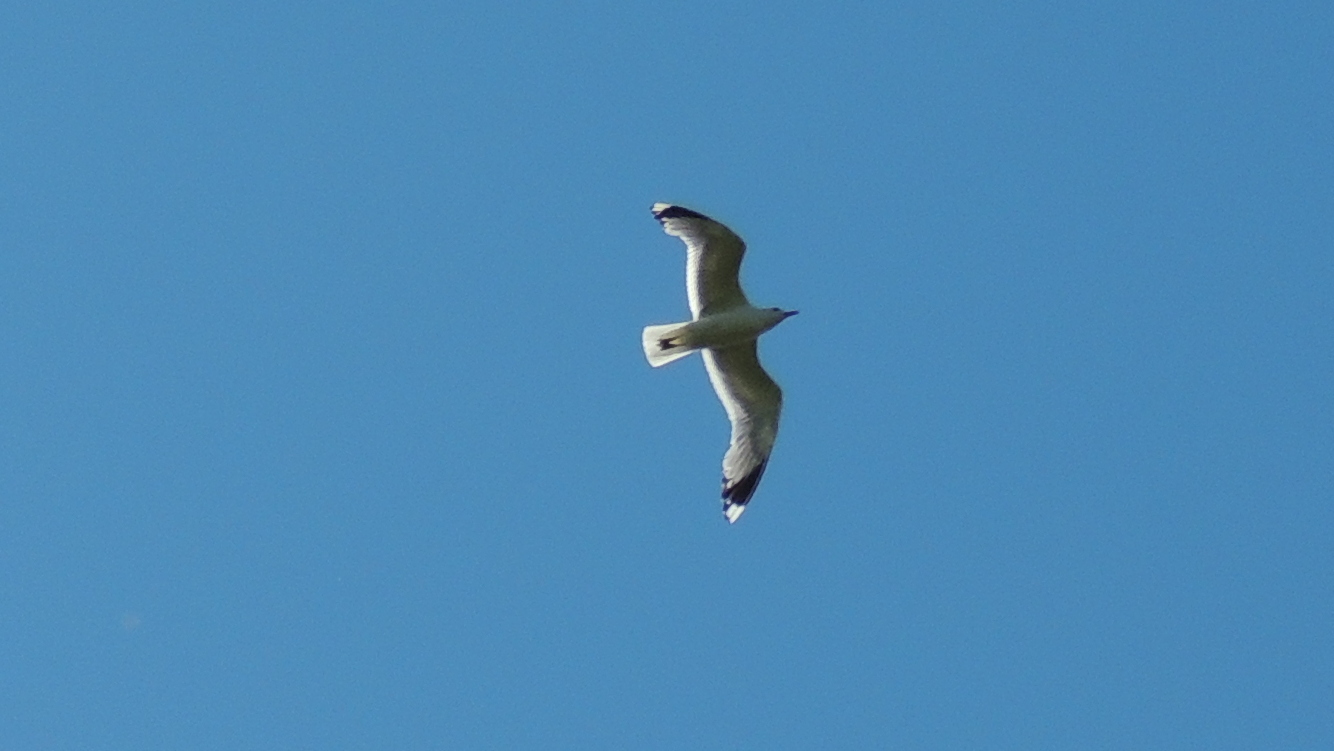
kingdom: Animalia
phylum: Chordata
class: Aves
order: Charadriiformes
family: Laridae
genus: Larus
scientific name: Larus canus
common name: Mew gull
